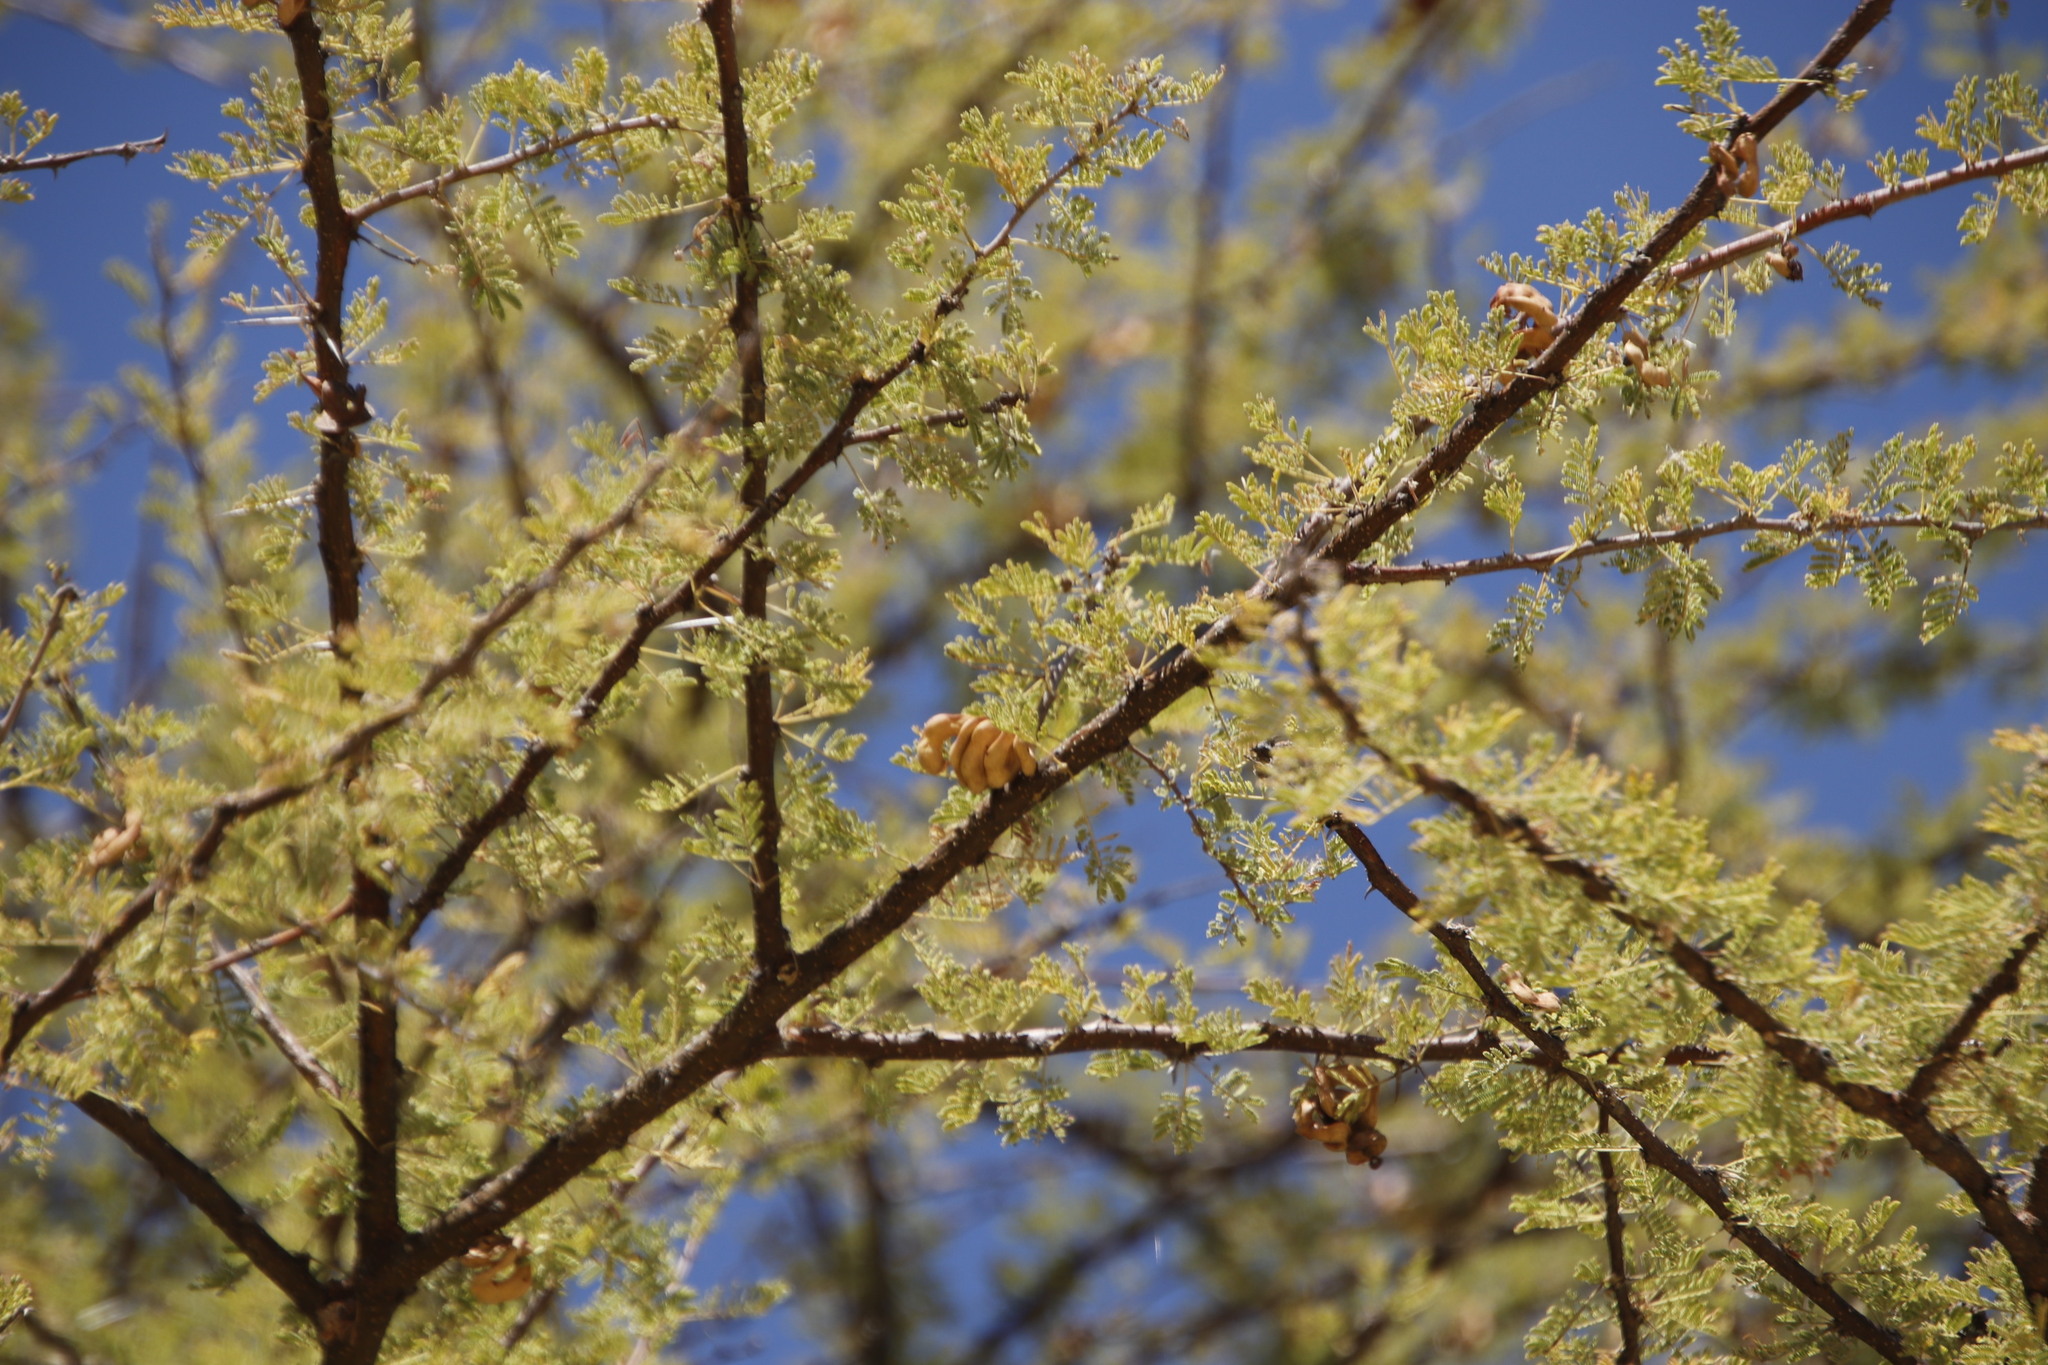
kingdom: Plantae
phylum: Tracheophyta
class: Magnoliopsida
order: Fabales
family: Fabaceae
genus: Vachellia
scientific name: Vachellia tortilis
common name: Umbrella thorn acacia
